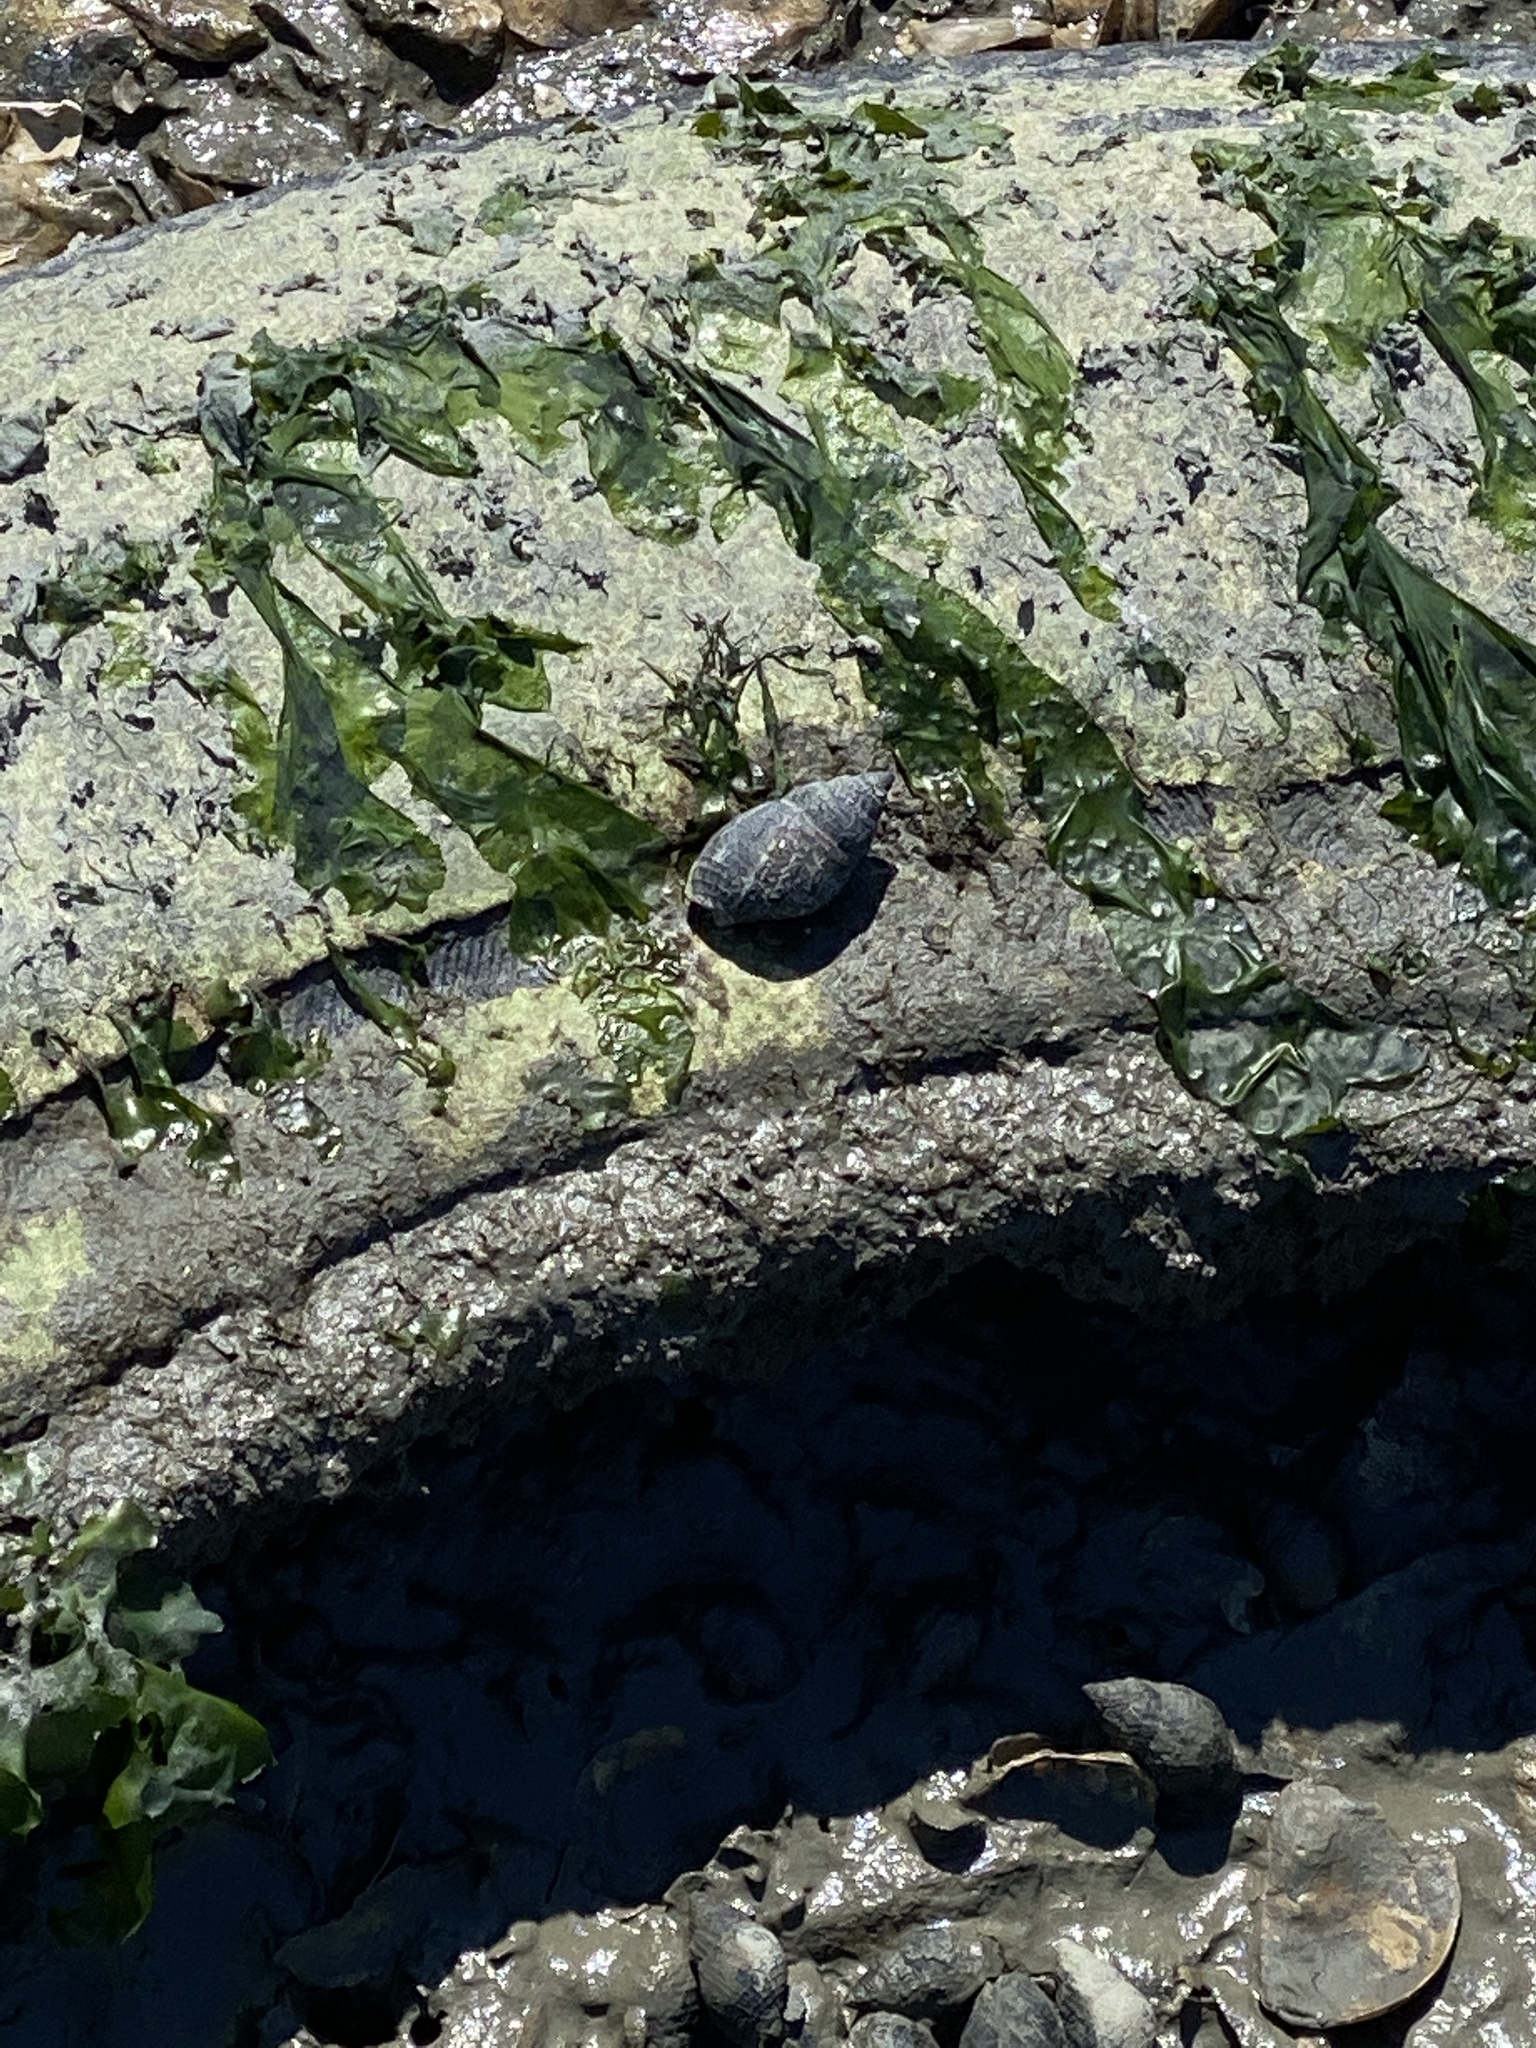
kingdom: Animalia
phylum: Mollusca
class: Gastropoda
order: Neogastropoda
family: Nassariidae
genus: Ilyanassa
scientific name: Ilyanassa obsoleta
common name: Eastern mudsnail
